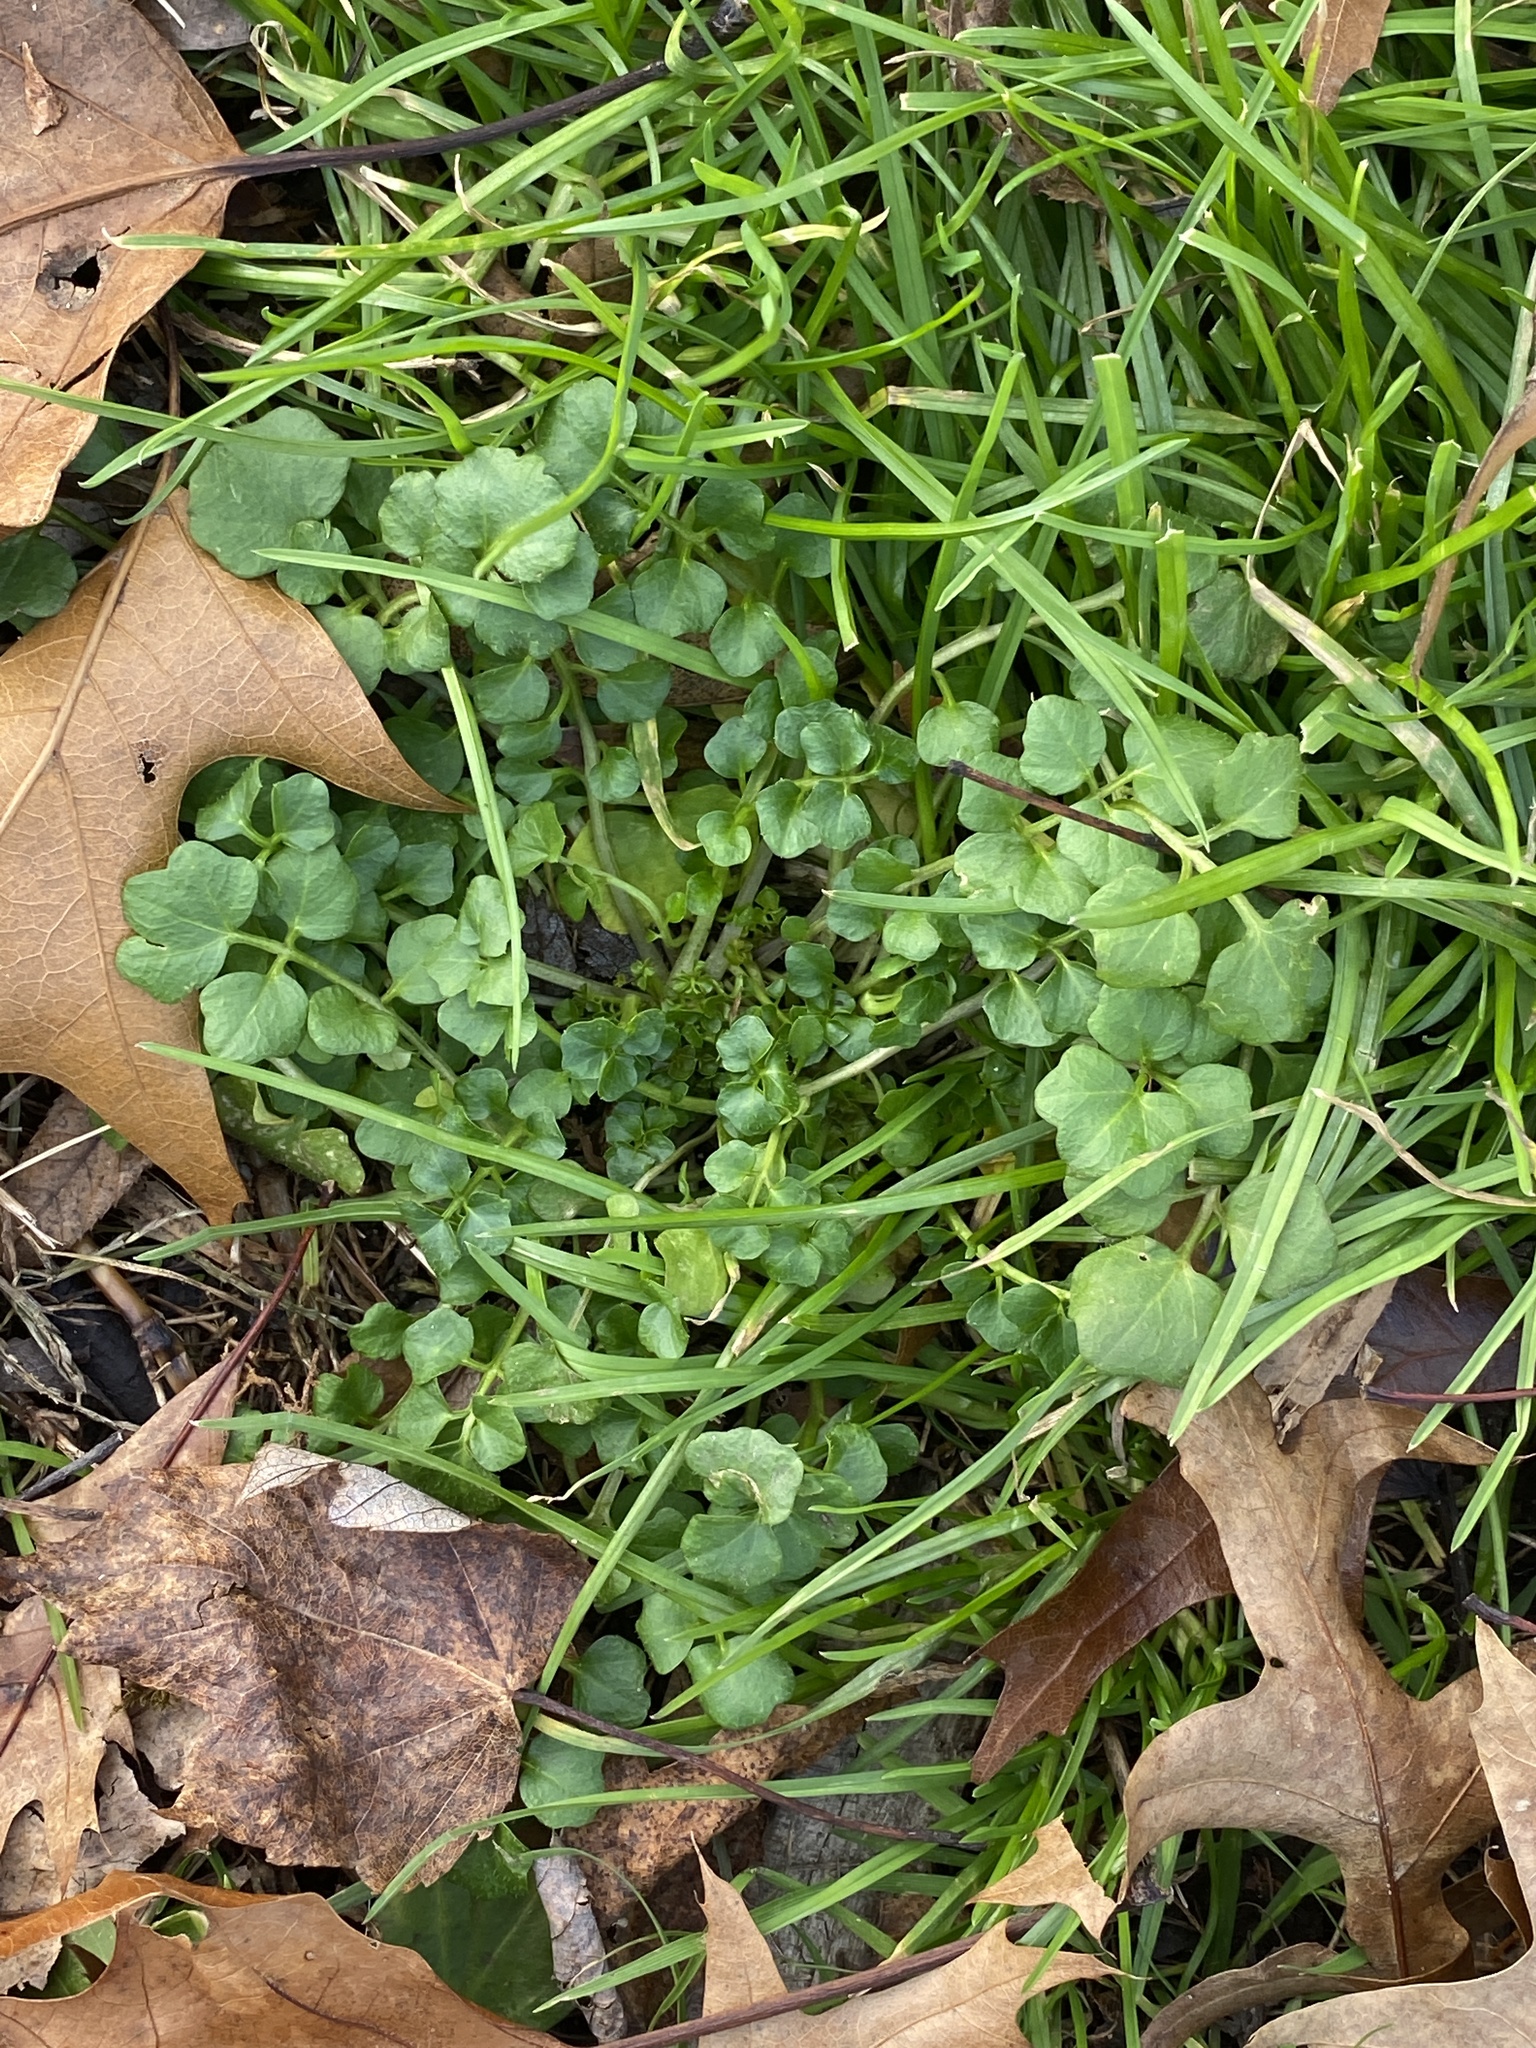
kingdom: Plantae
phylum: Tracheophyta
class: Magnoliopsida
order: Brassicales
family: Brassicaceae
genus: Cardamine
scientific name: Cardamine hirsuta
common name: Hairy bittercress
